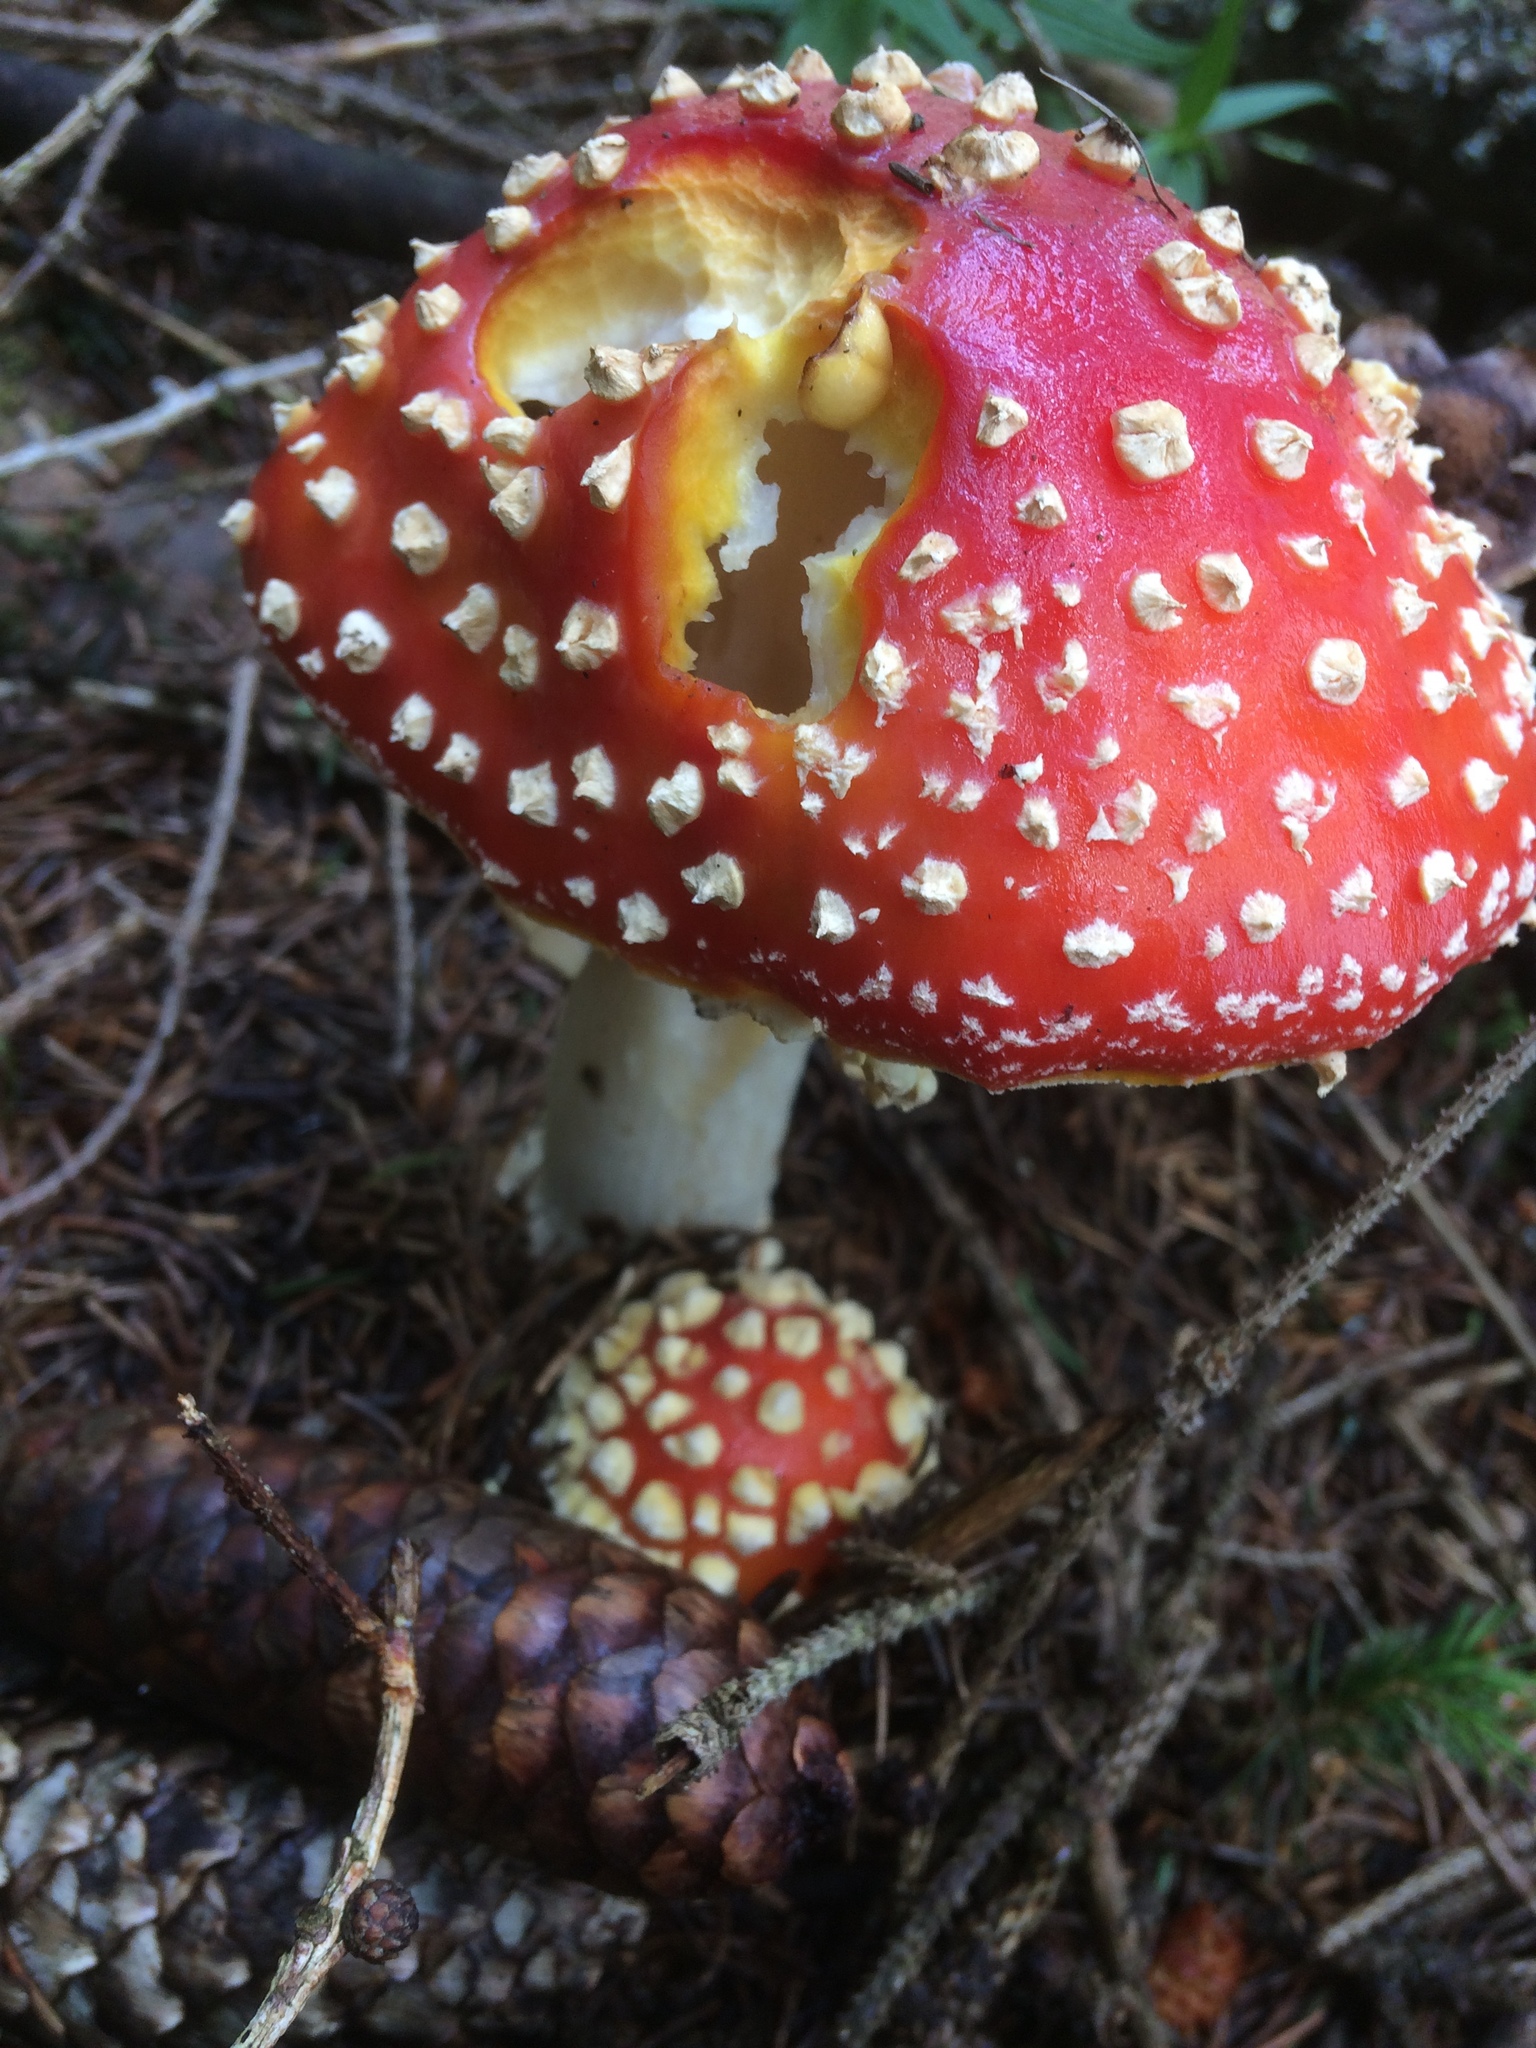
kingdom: Fungi
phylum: Basidiomycota
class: Agaricomycetes
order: Agaricales
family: Amanitaceae
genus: Amanita
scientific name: Amanita muscaria
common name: Fly agaric
